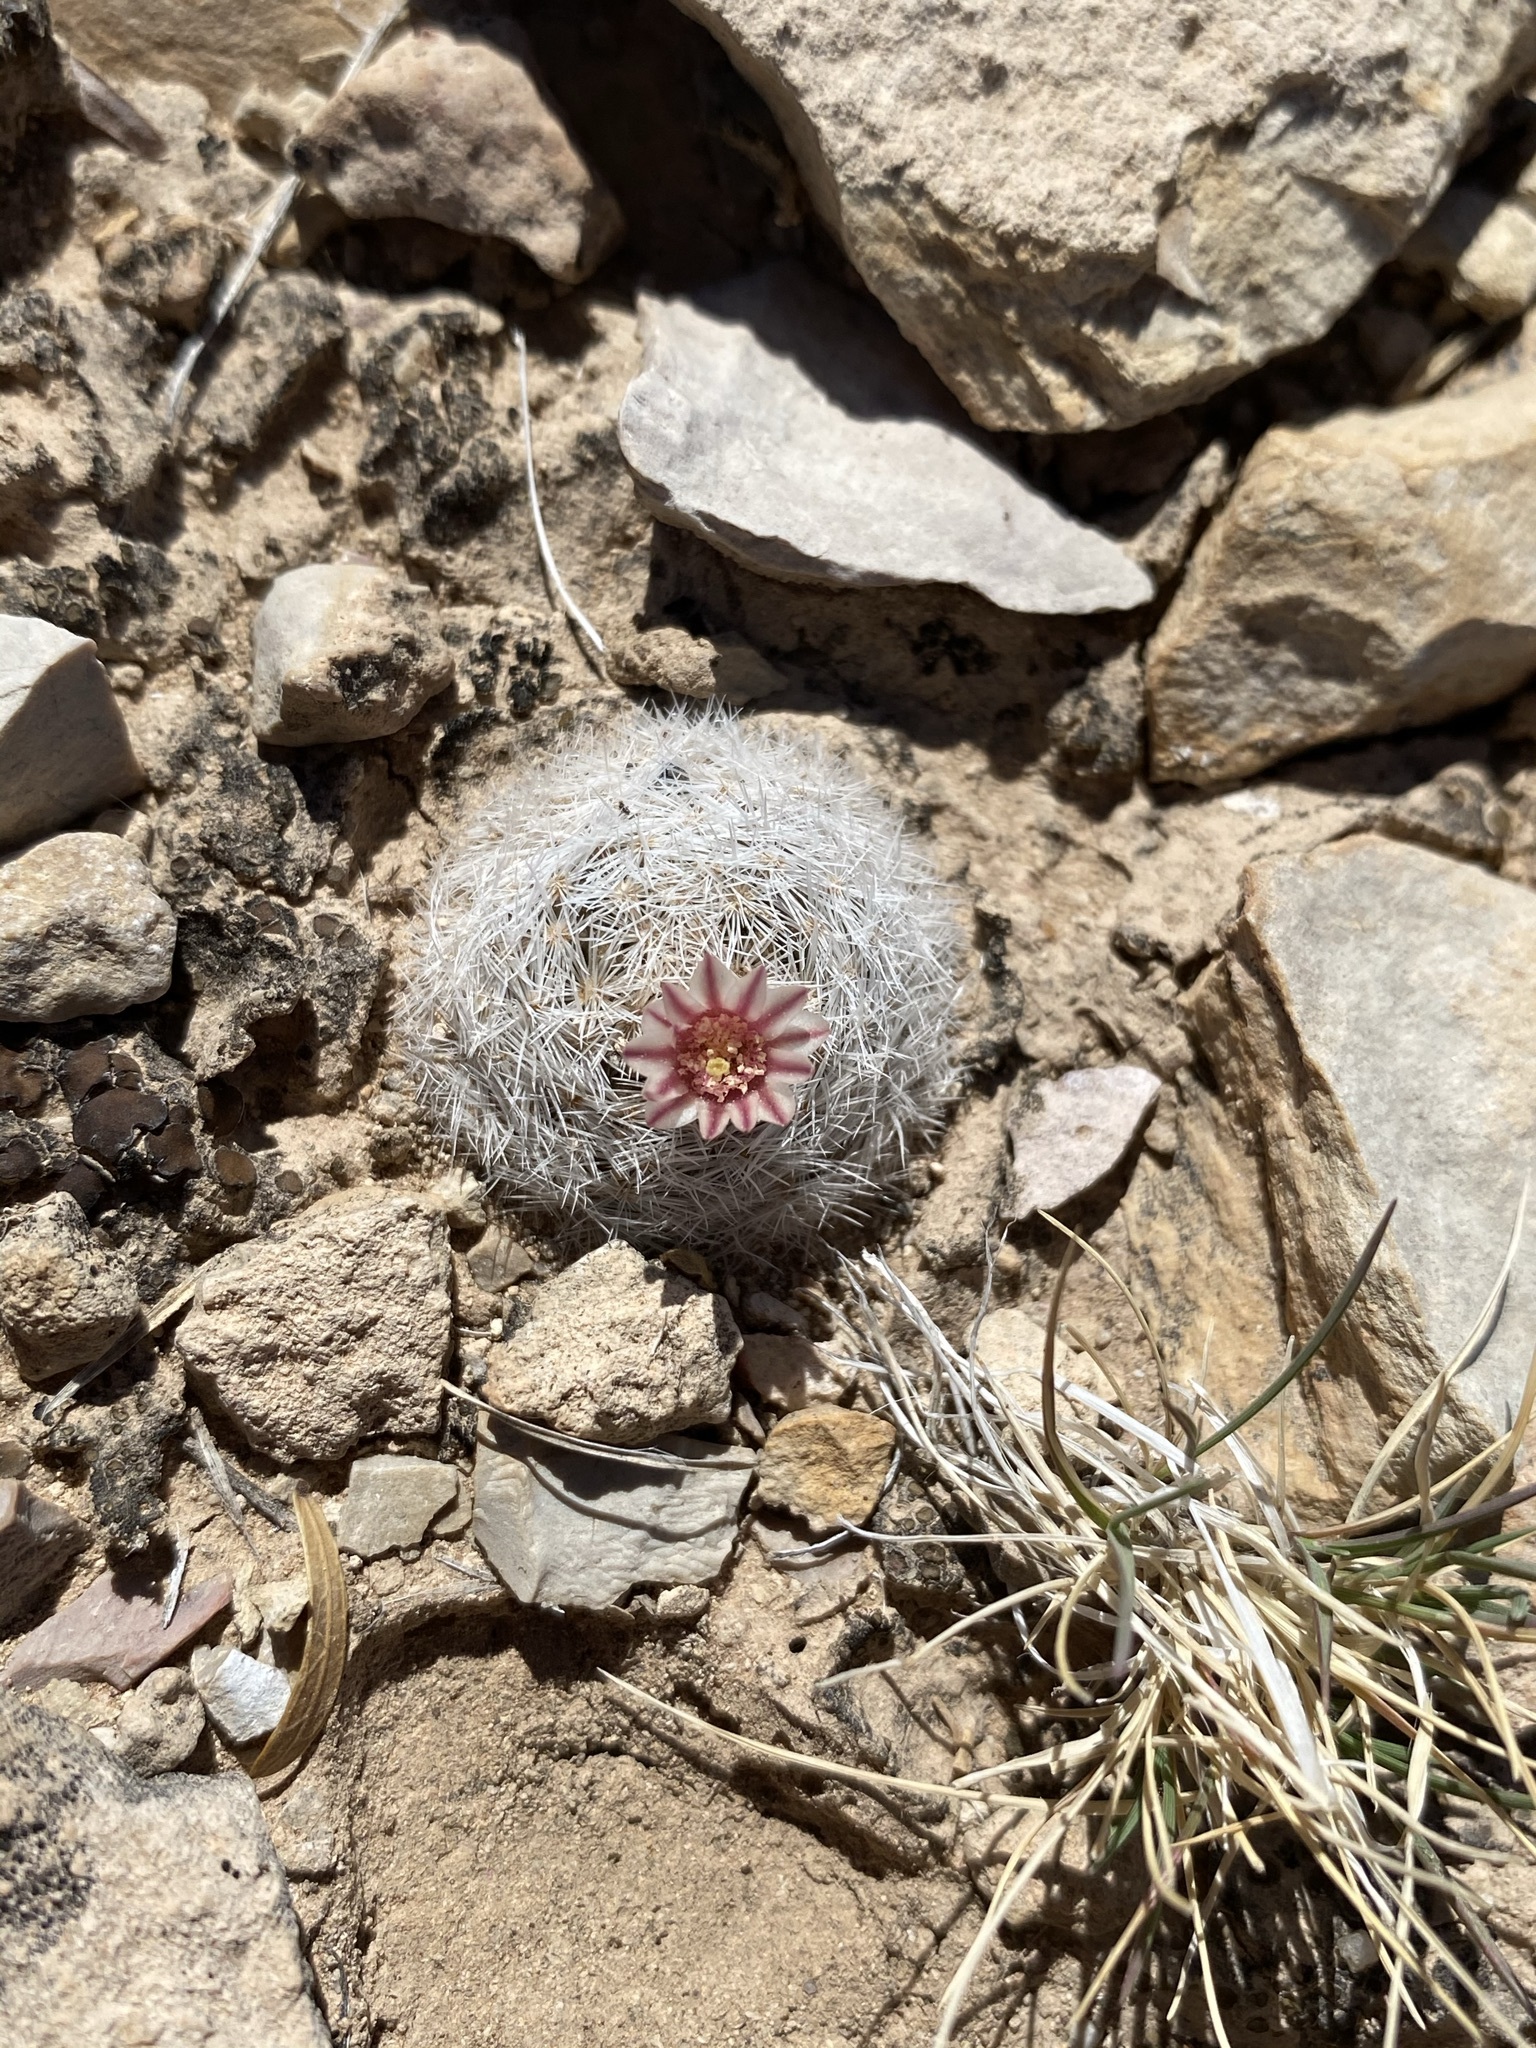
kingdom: Plantae
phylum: Tracheophyta
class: Magnoliopsida
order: Caryophyllales
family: Cactaceae
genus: Mammillaria
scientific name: Mammillaria lasiacantha
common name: Lace-spine nipple cactus
